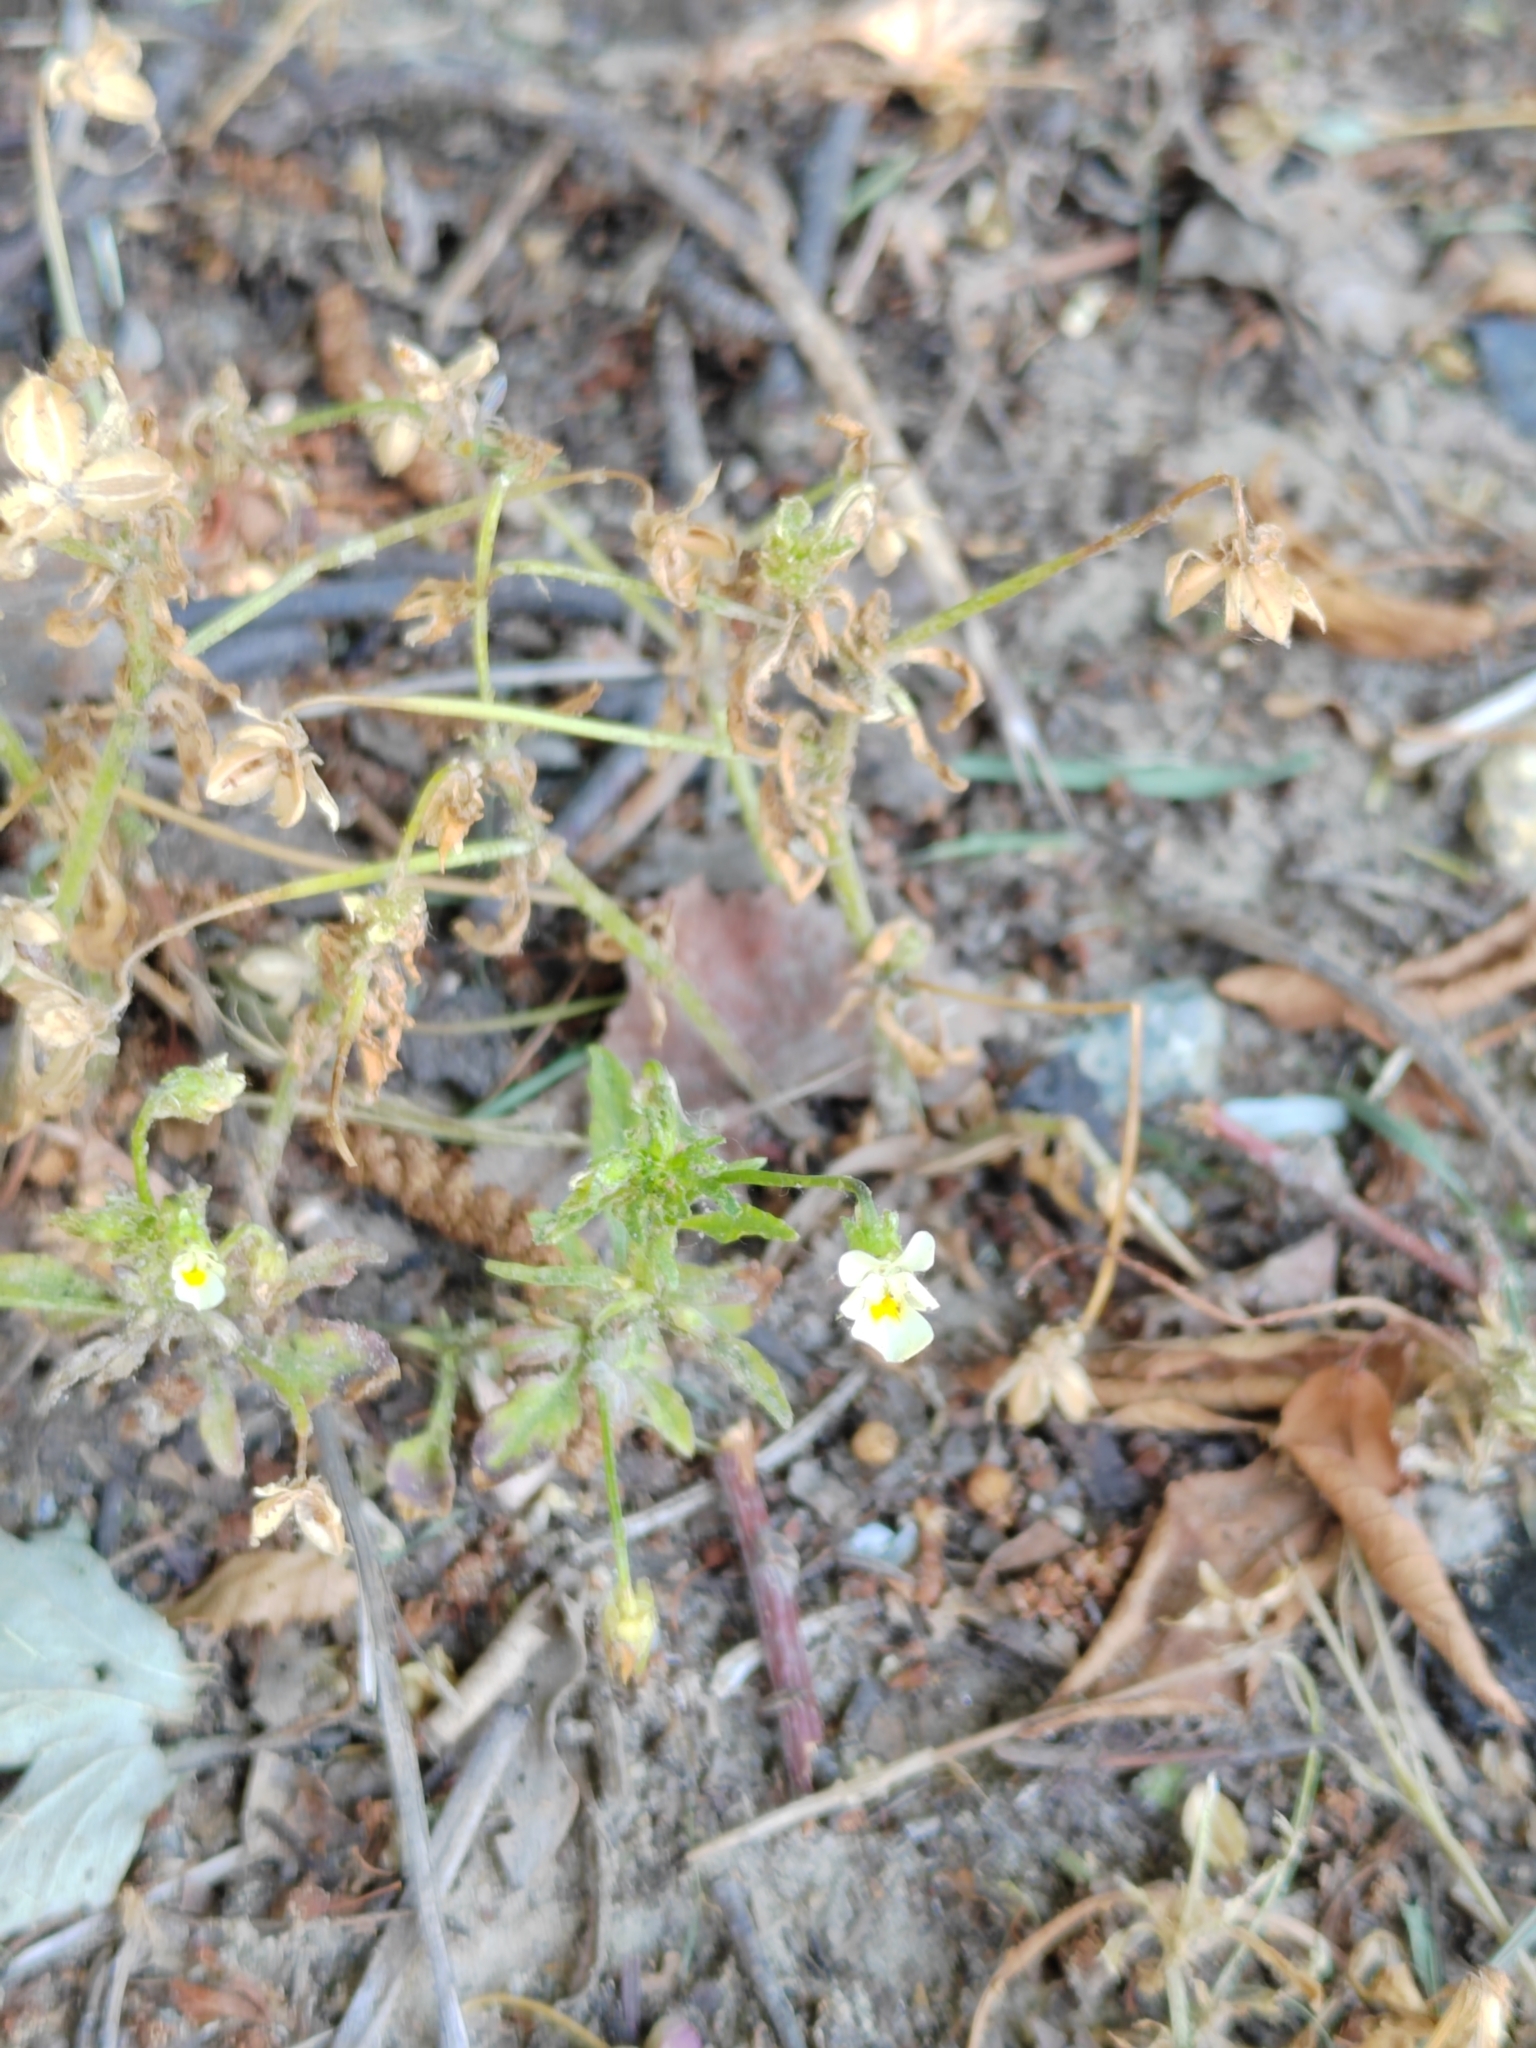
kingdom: Plantae
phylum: Tracheophyta
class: Magnoliopsida
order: Malpighiales
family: Violaceae
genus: Viola
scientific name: Viola arvensis
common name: Field pansy
